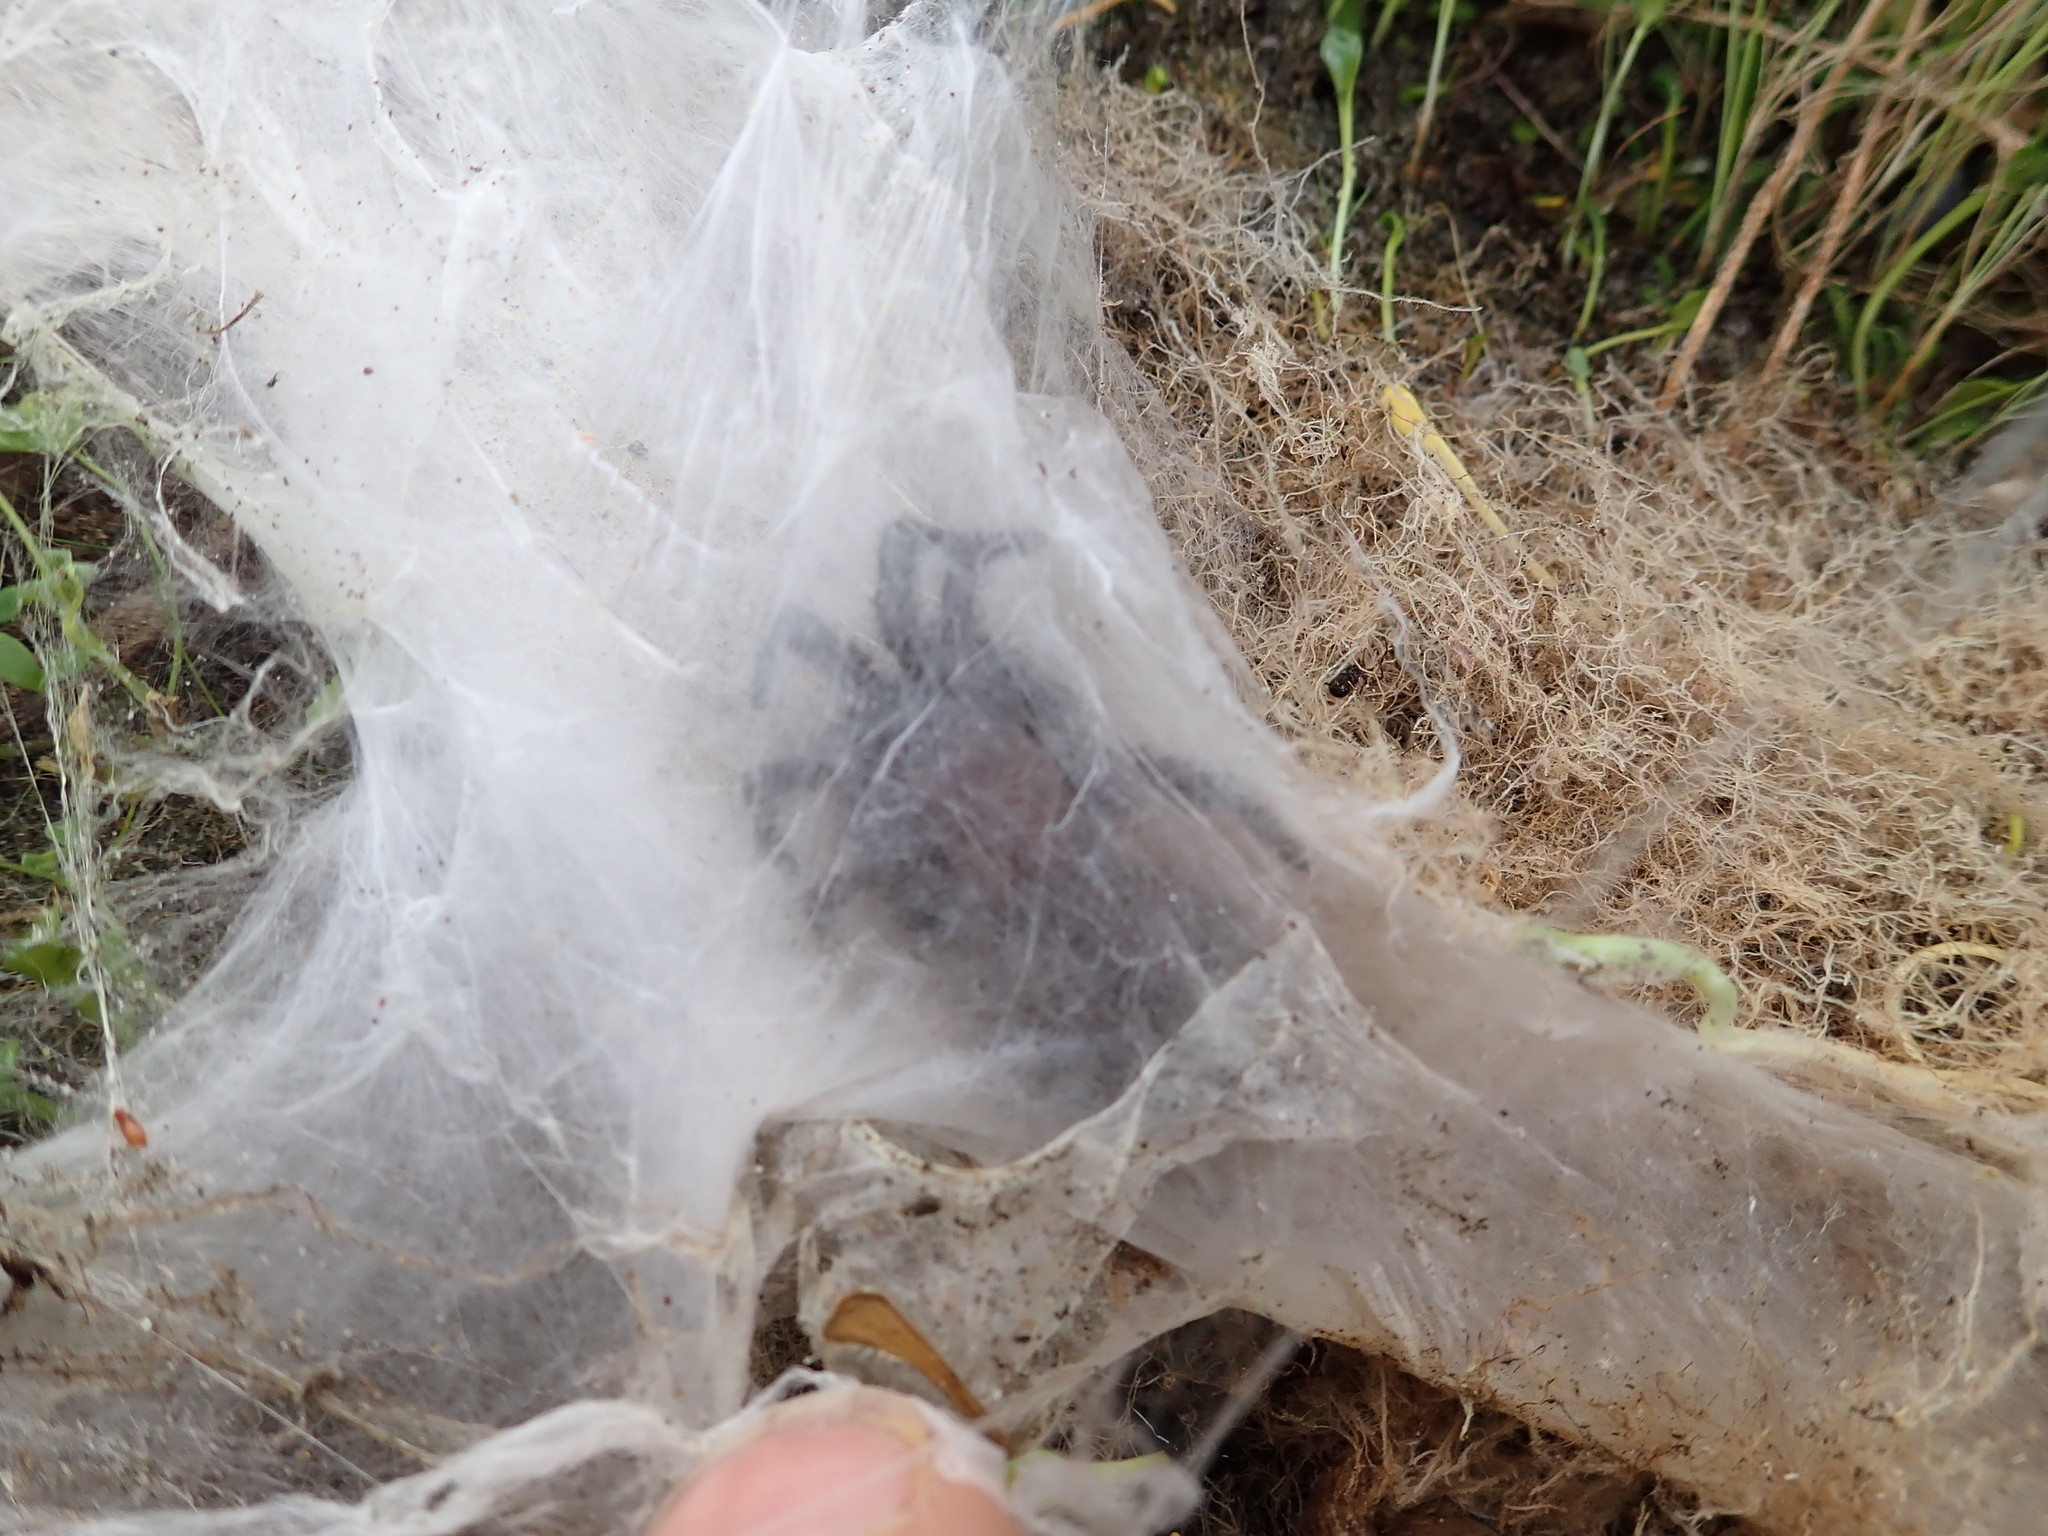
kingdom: Animalia
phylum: Arthropoda
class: Arachnida
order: Araneae
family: Porrhothelidae
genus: Porrhothele
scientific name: Porrhothele antipodiana
